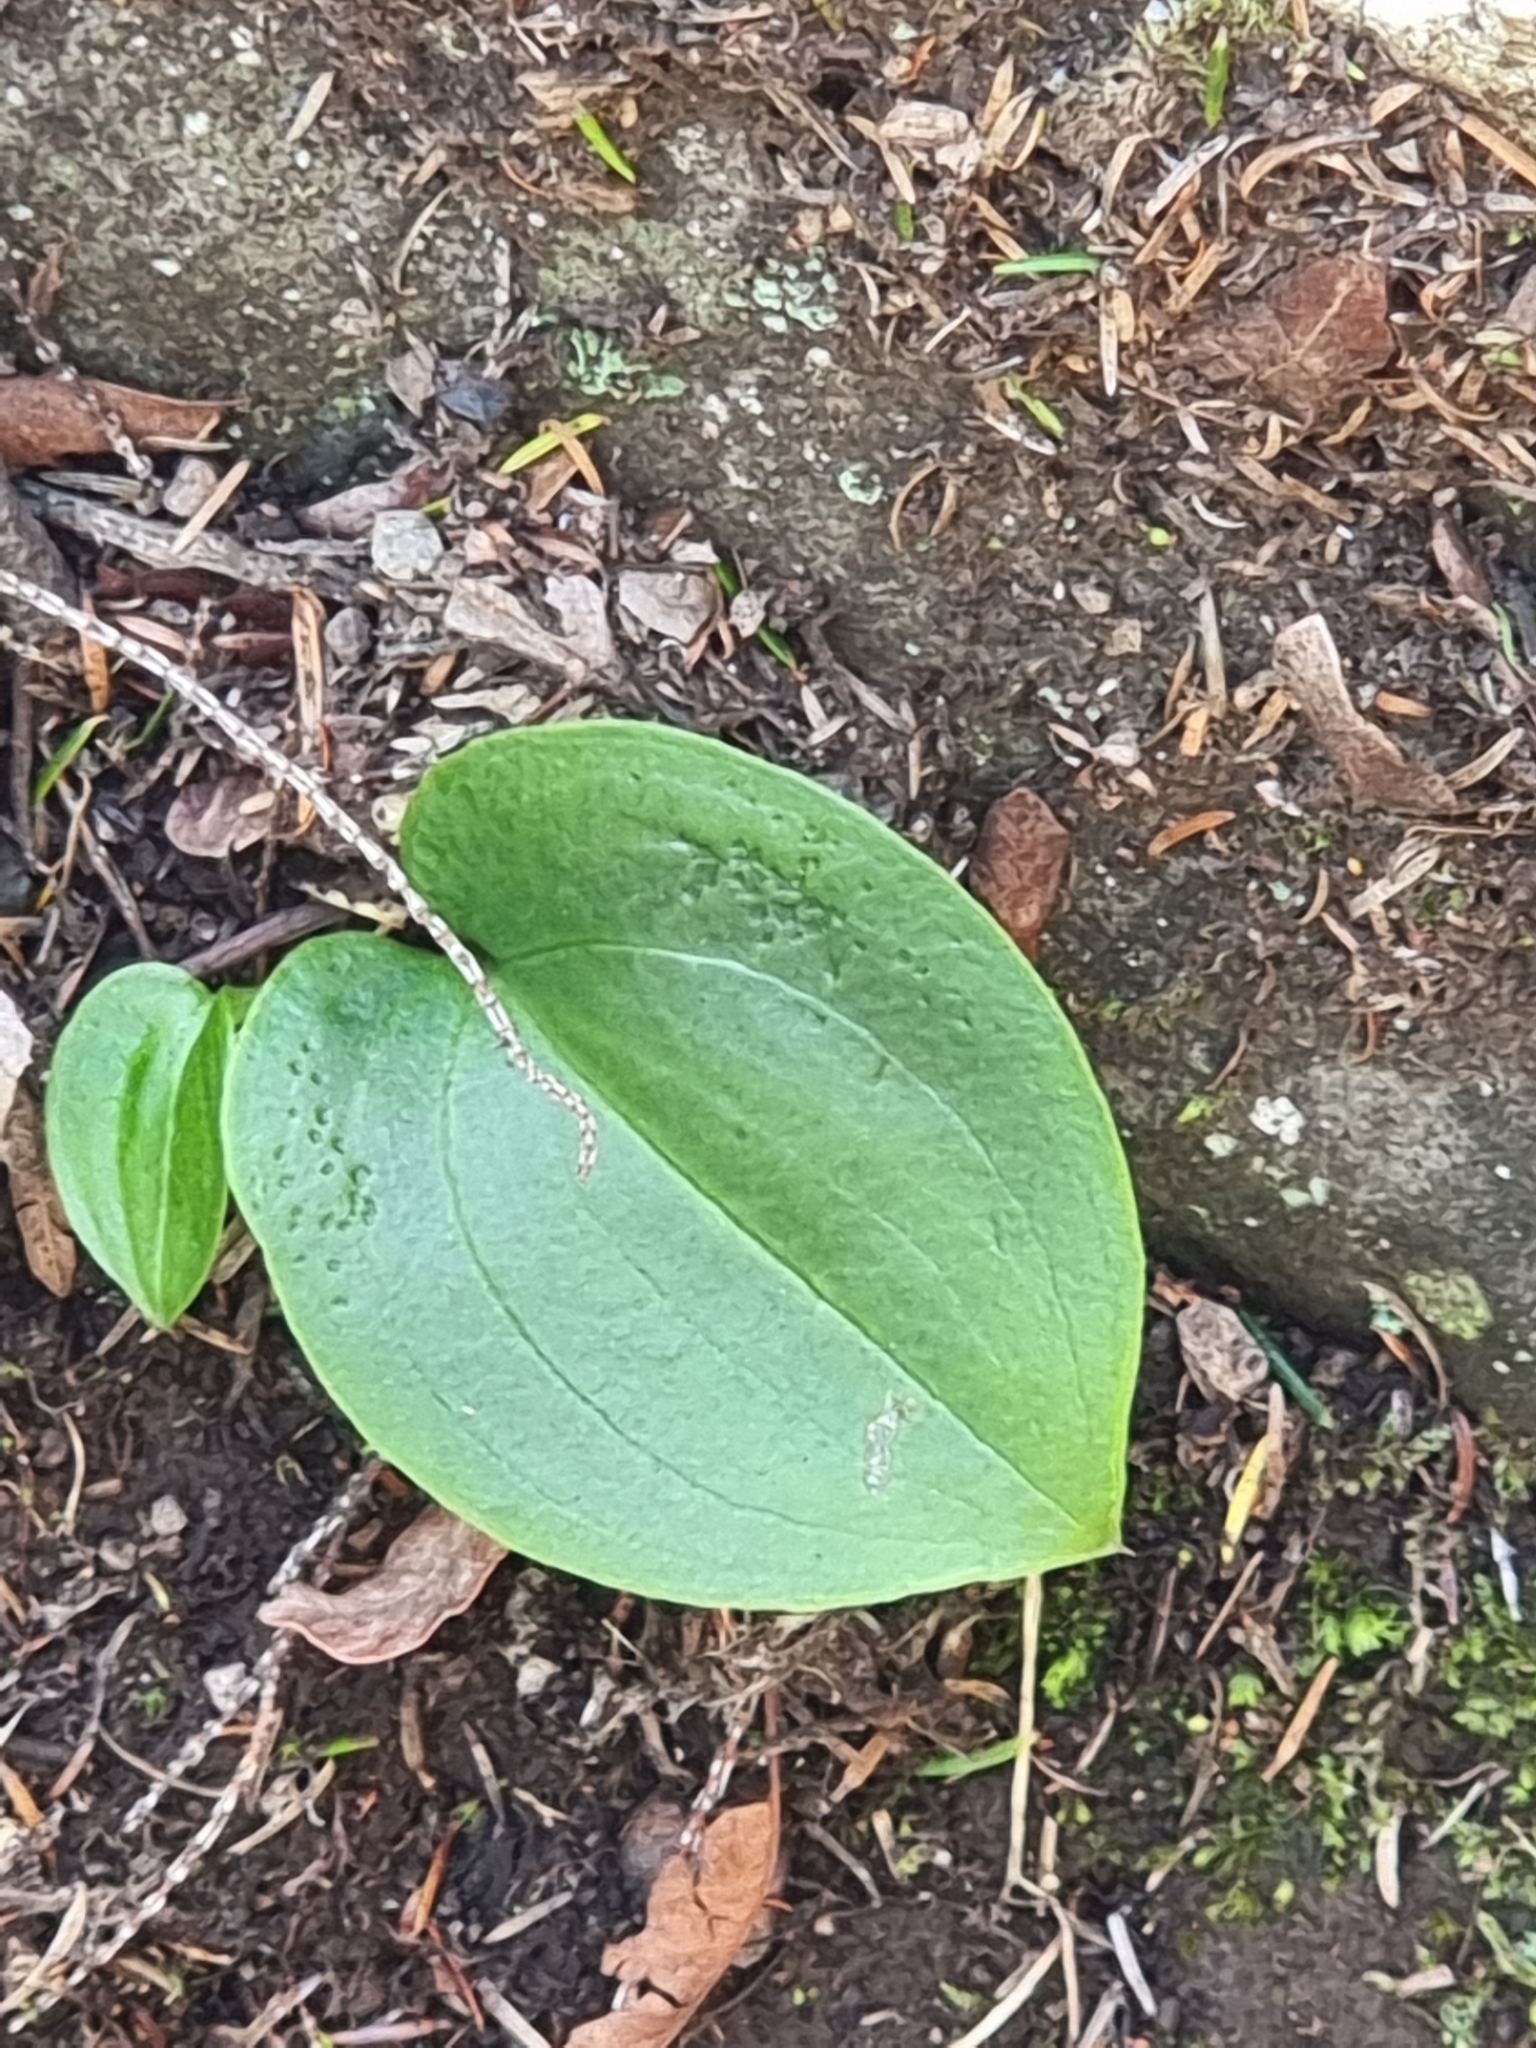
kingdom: Plantae
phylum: Tracheophyta
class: Liliopsida
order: Asparagales
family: Orchidaceae
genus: Gennaria
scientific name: Gennaria diphylla
